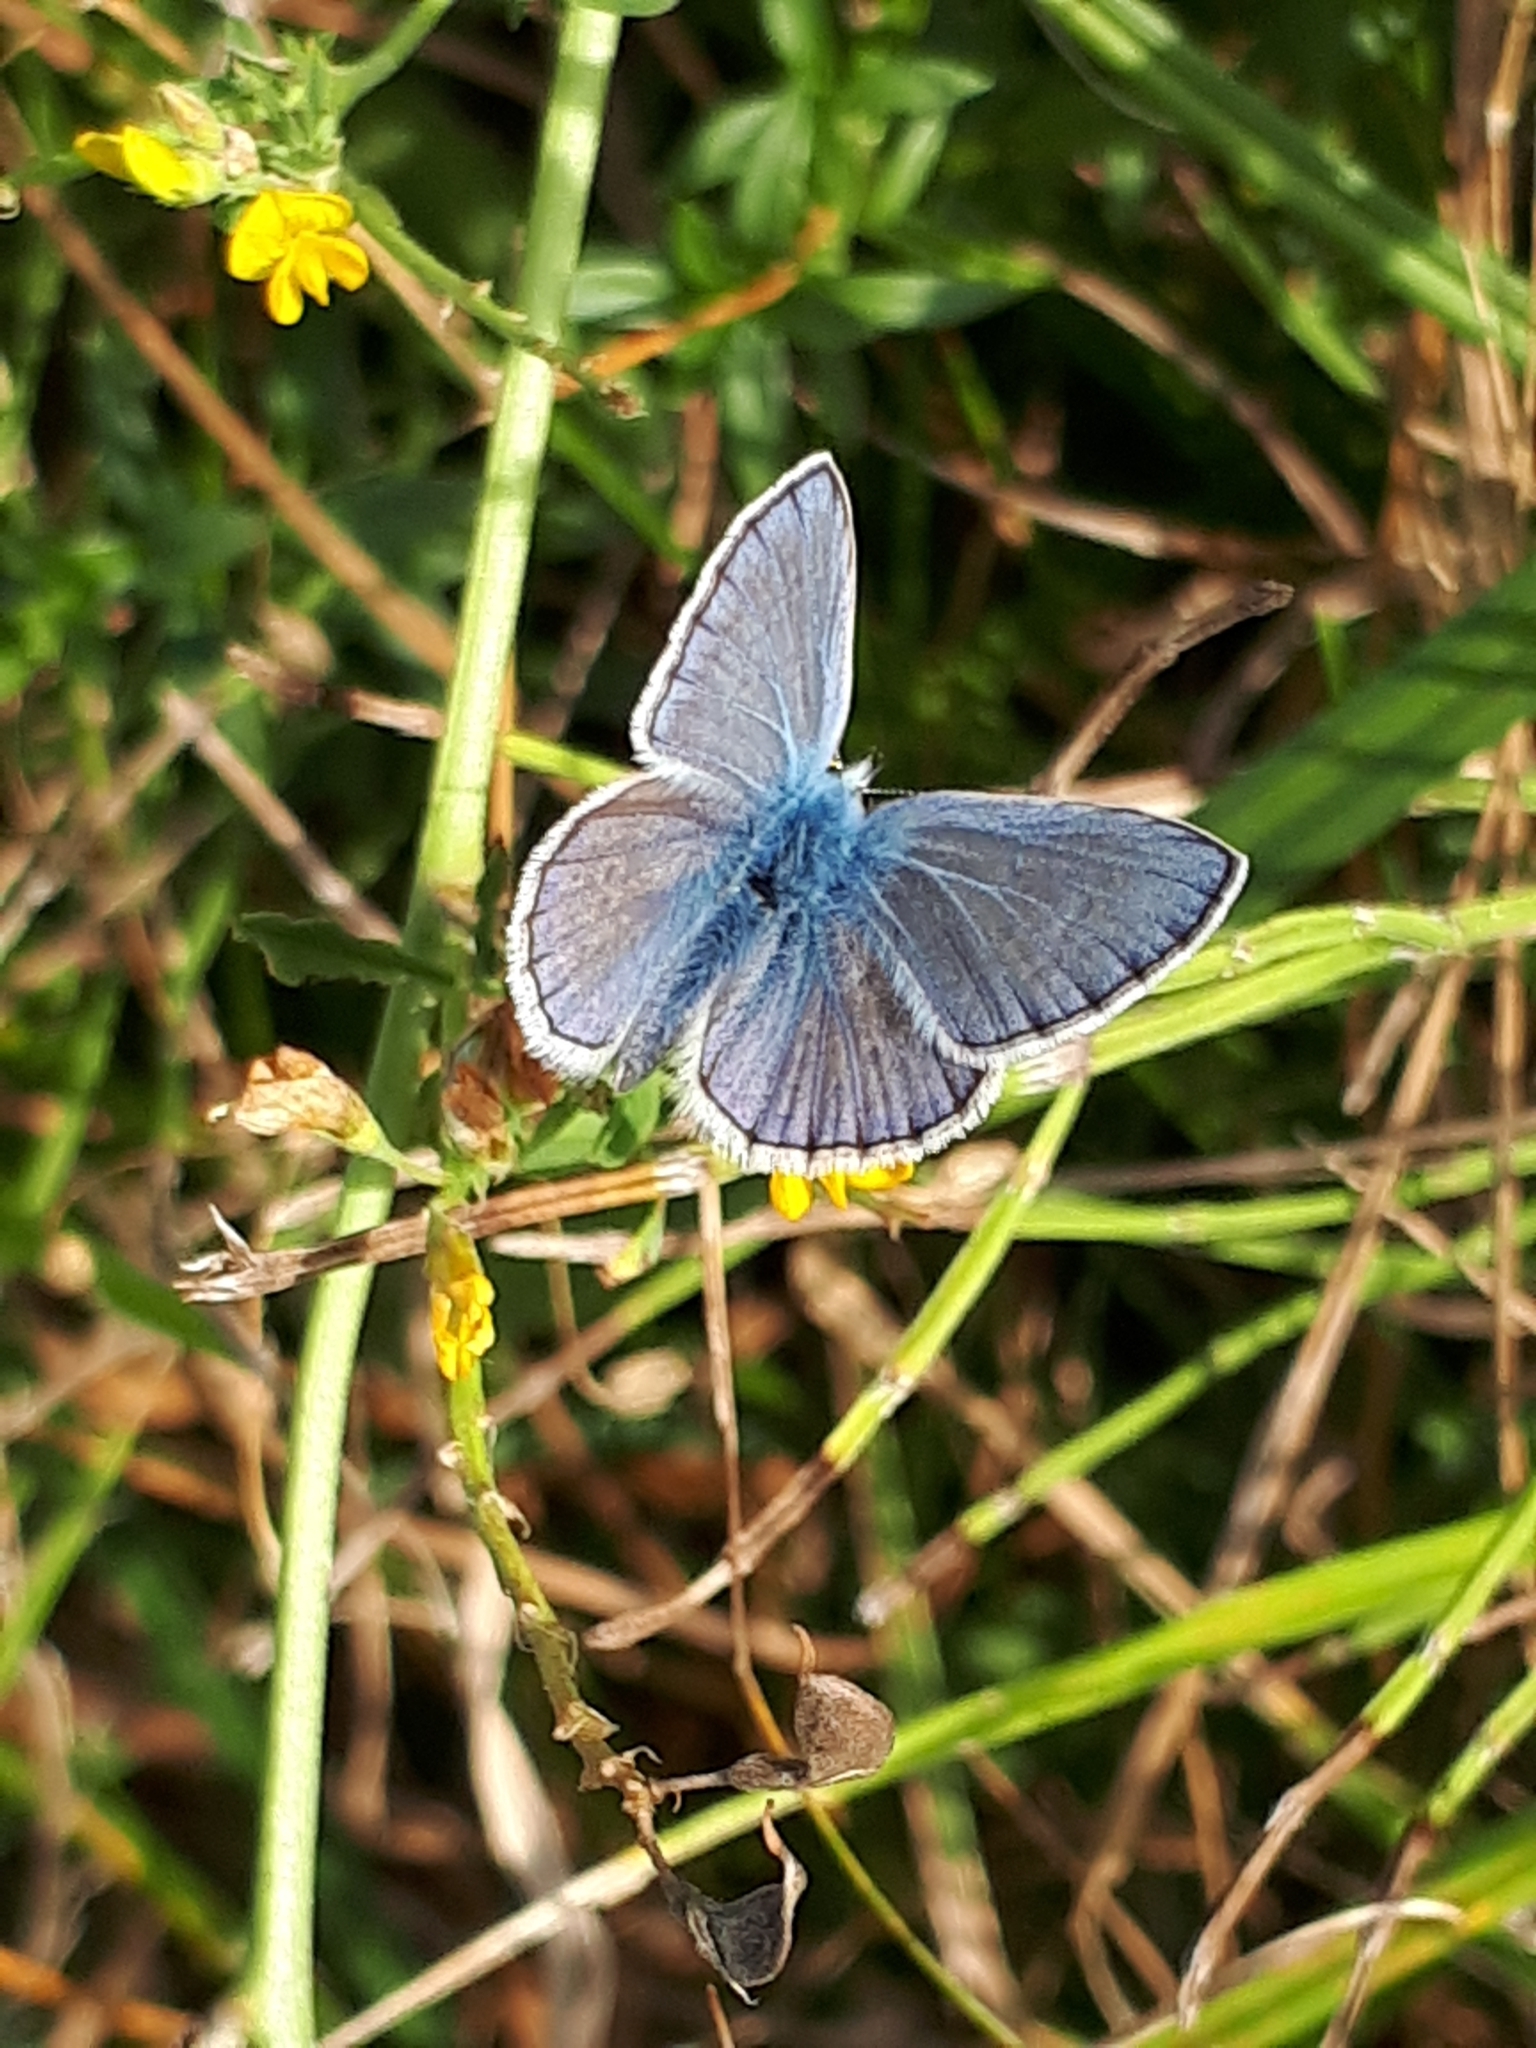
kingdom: Animalia
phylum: Arthropoda
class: Insecta
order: Lepidoptera
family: Lycaenidae
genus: Polyommatus
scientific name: Polyommatus icarus
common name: Common blue
